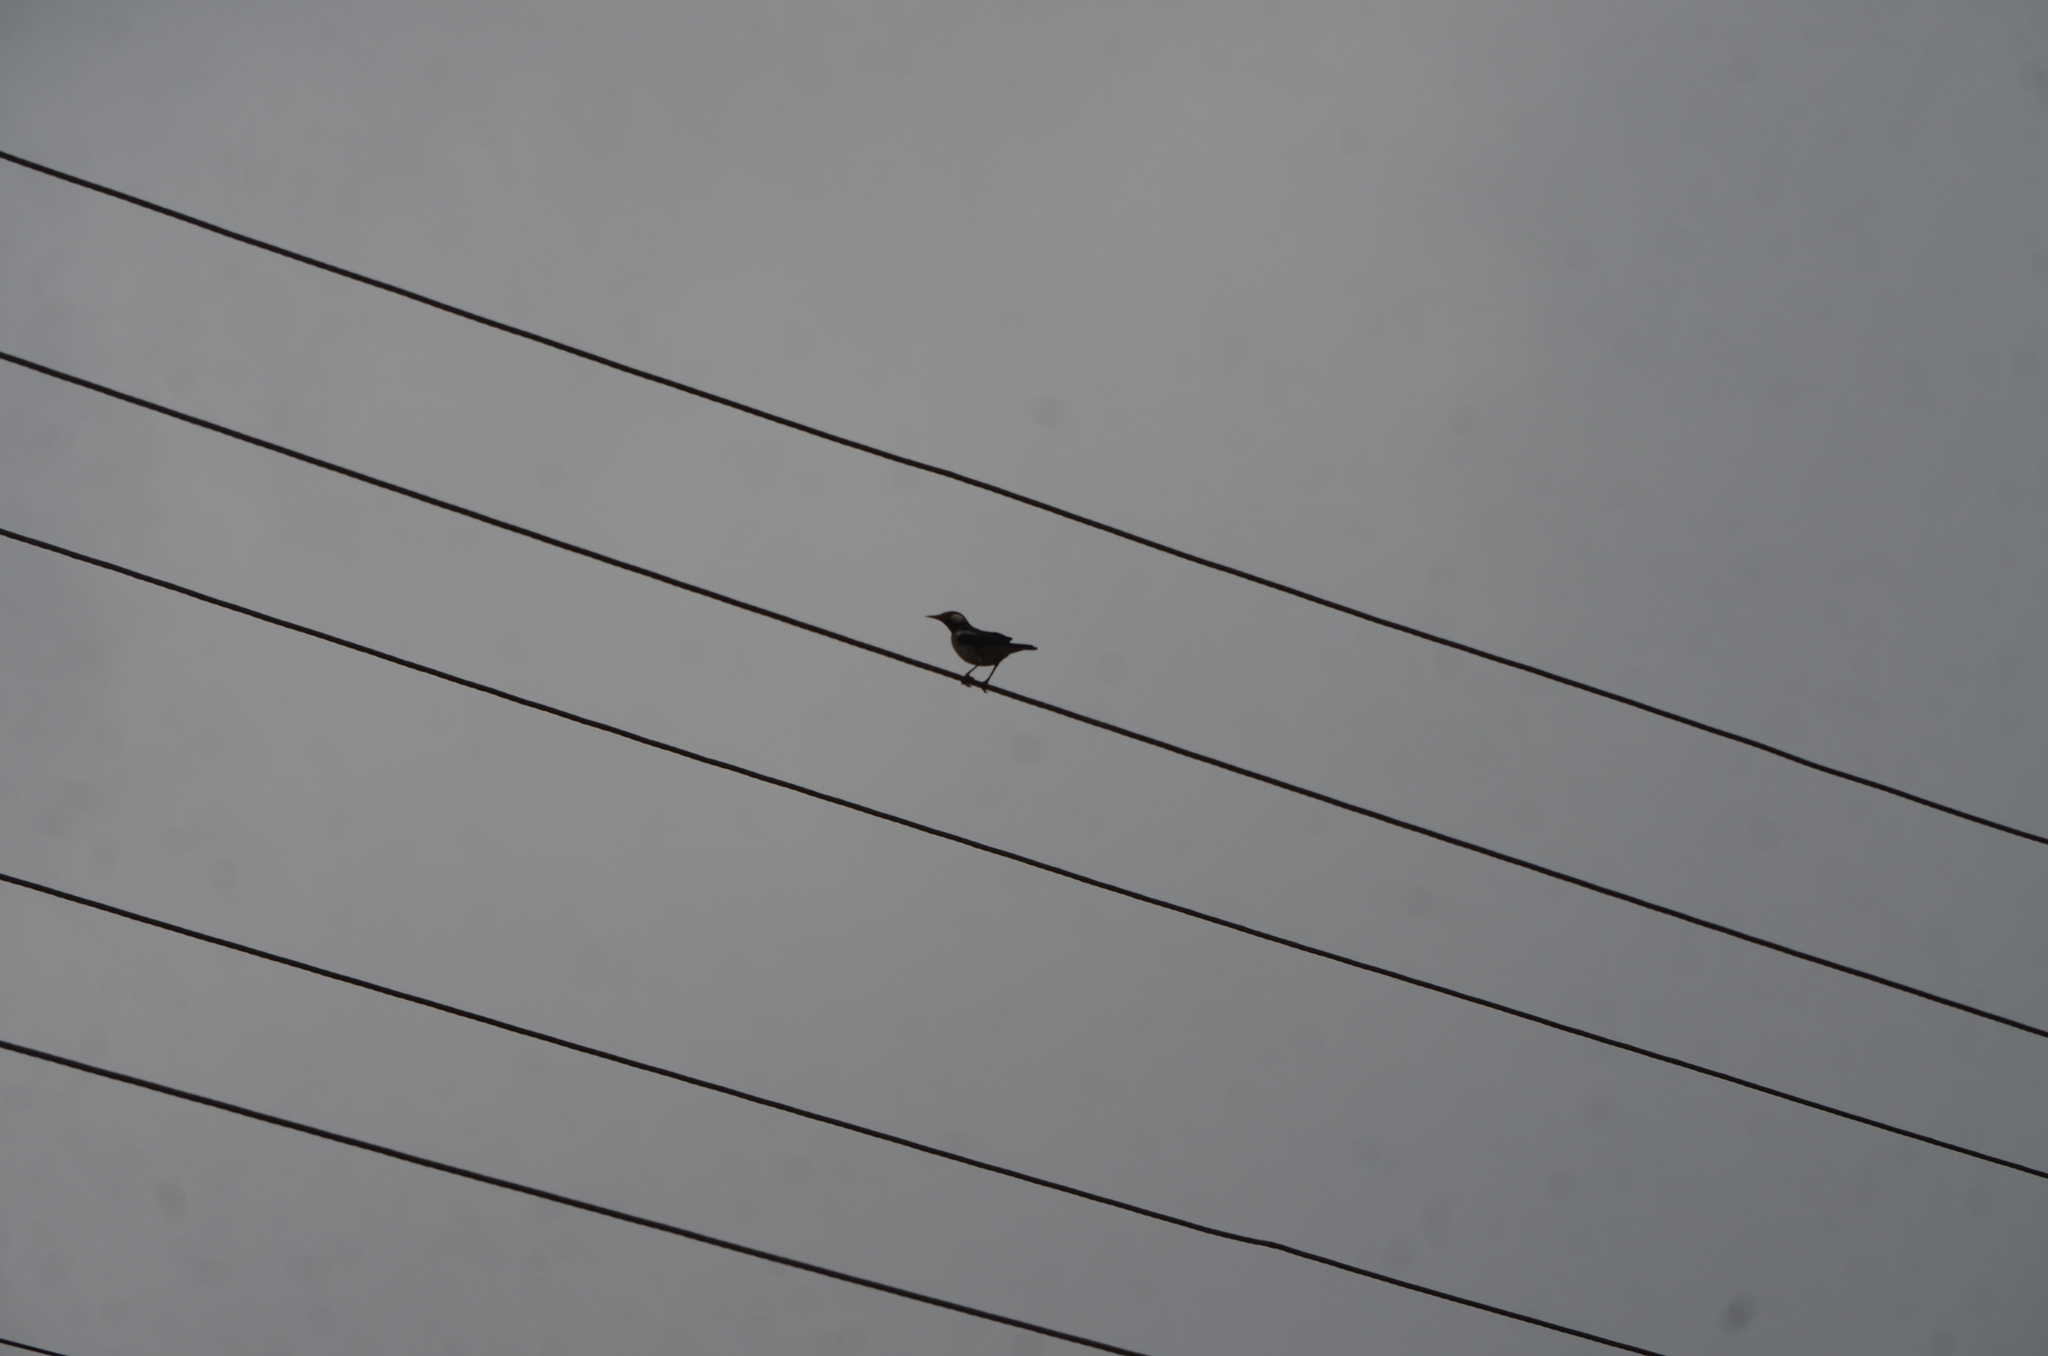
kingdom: Animalia
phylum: Chordata
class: Aves
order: Passeriformes
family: Sturnidae
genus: Gracupica
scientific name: Gracupica contra
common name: Pied myna
